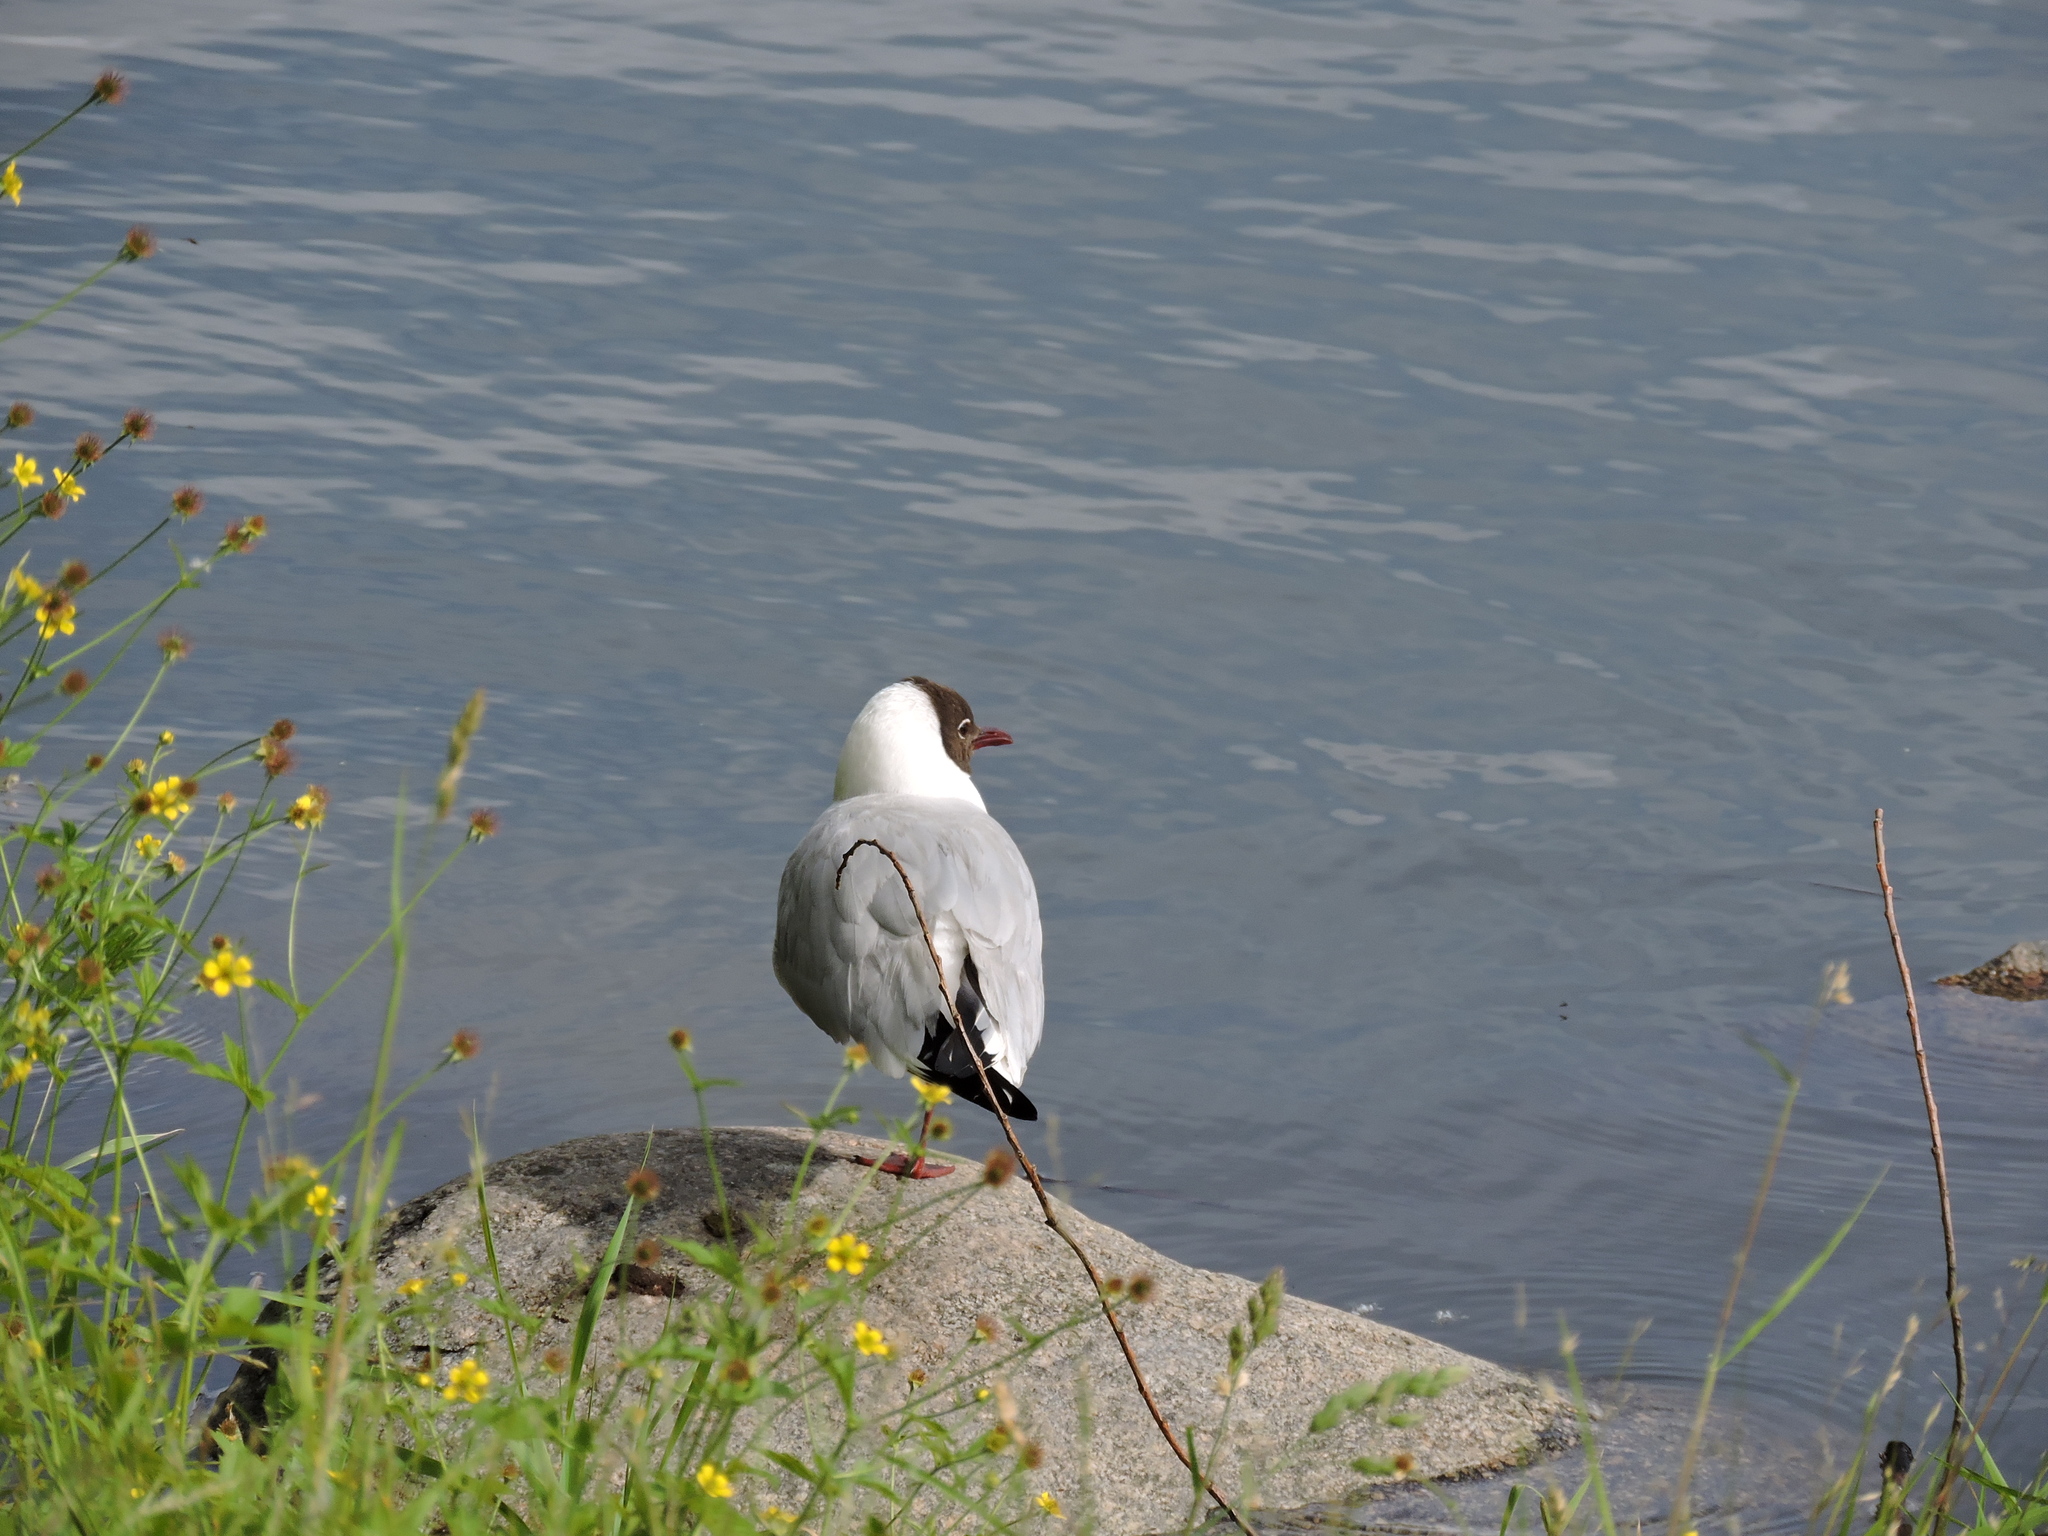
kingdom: Animalia
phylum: Chordata
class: Aves
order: Charadriiformes
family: Laridae
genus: Chroicocephalus
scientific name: Chroicocephalus ridibundus
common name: Black-headed gull
